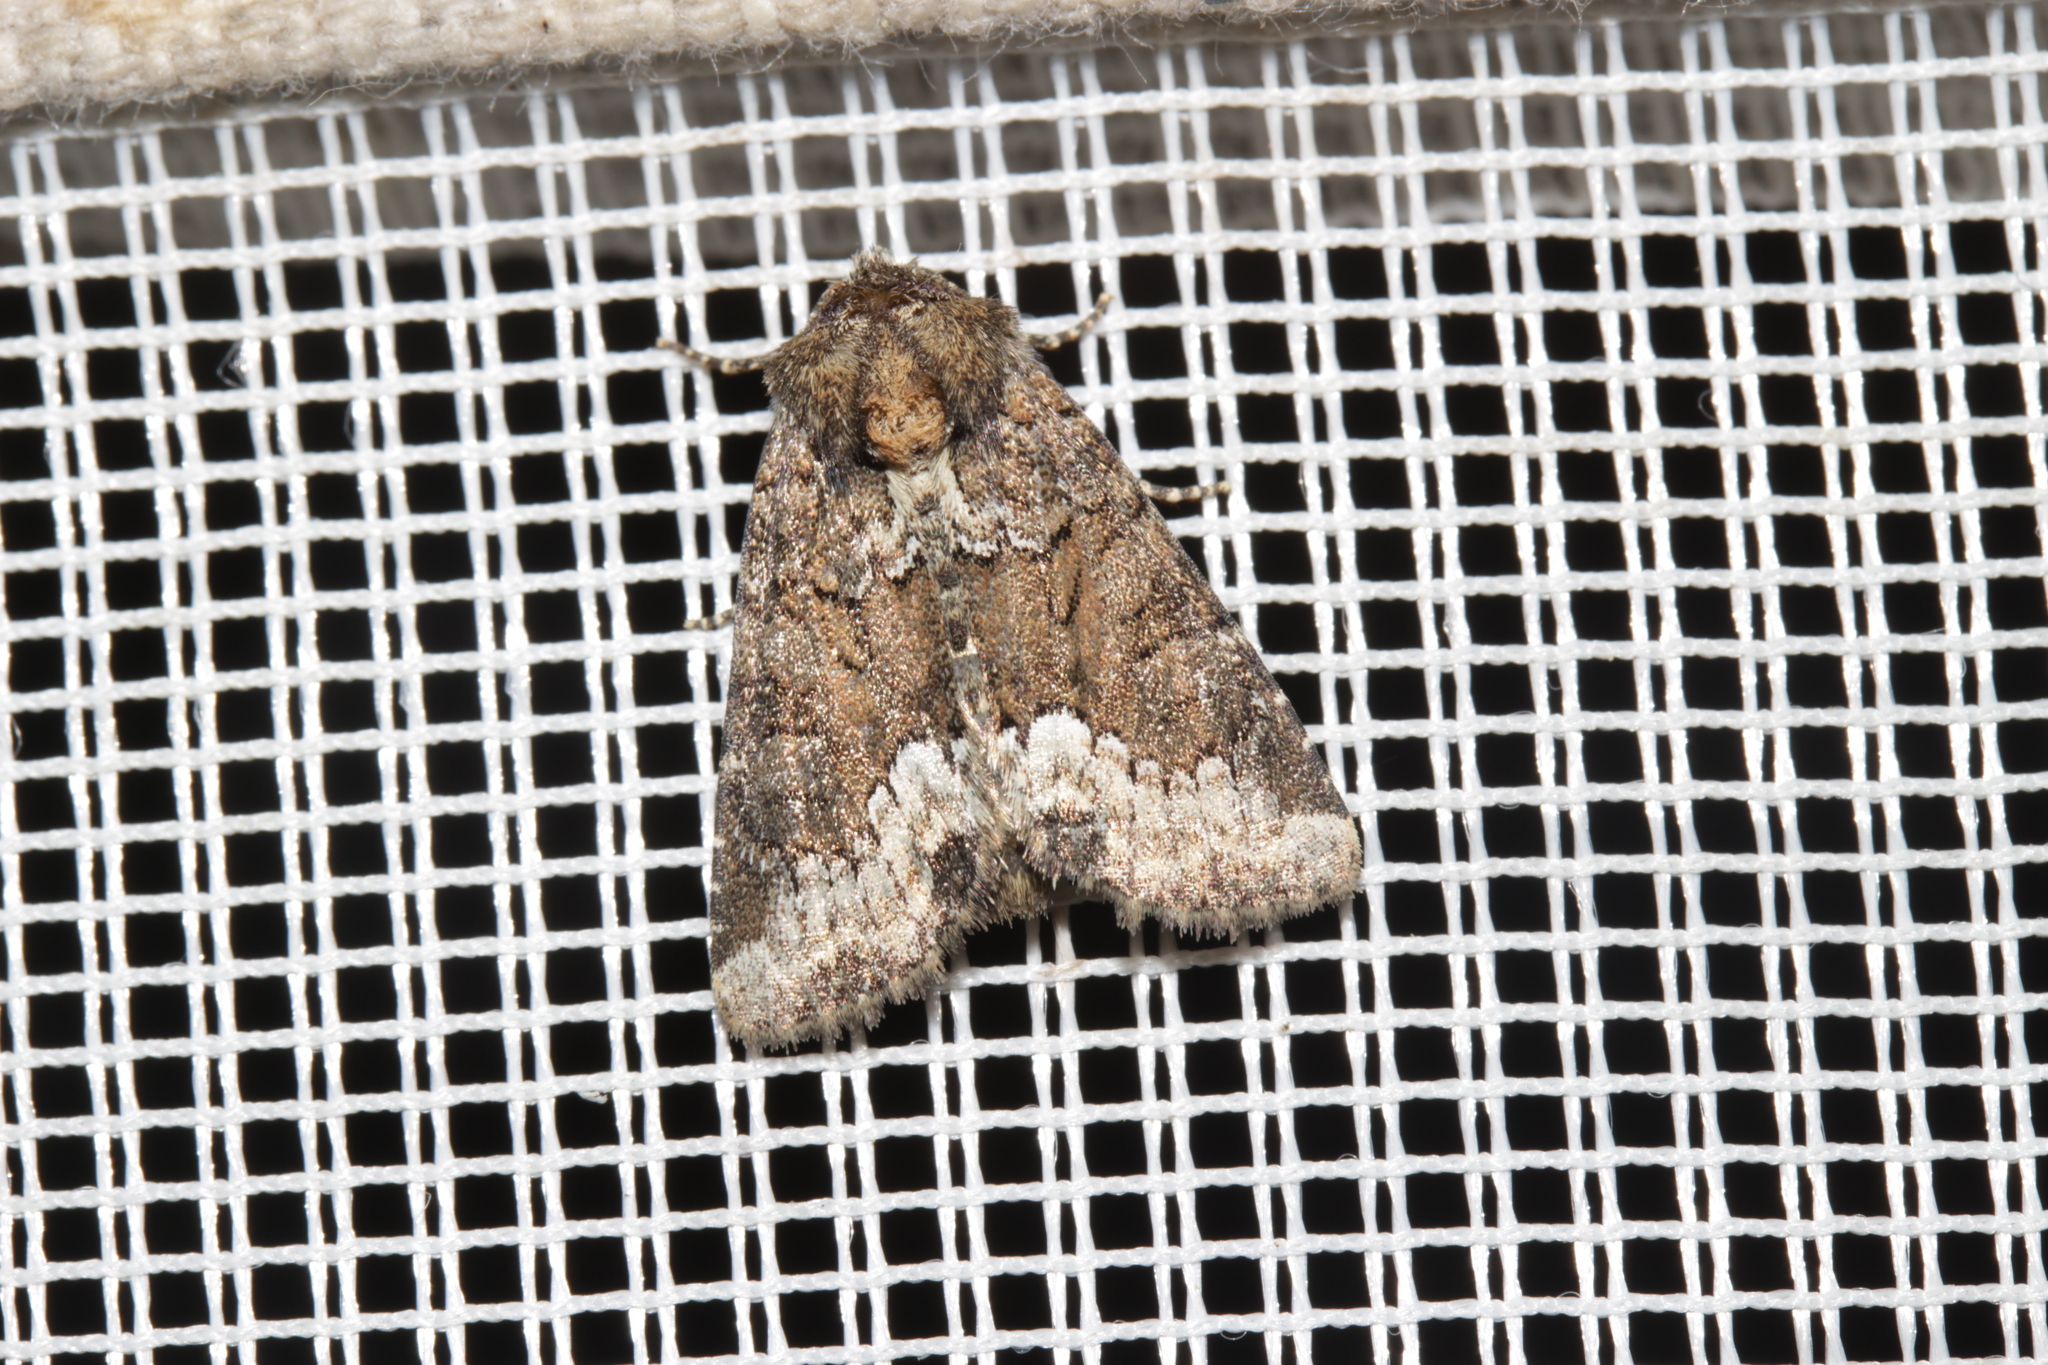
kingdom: Animalia
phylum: Arthropoda
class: Insecta
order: Lepidoptera
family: Noctuidae
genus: Oligia
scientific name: Oligia strigilis
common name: Marbled minor
